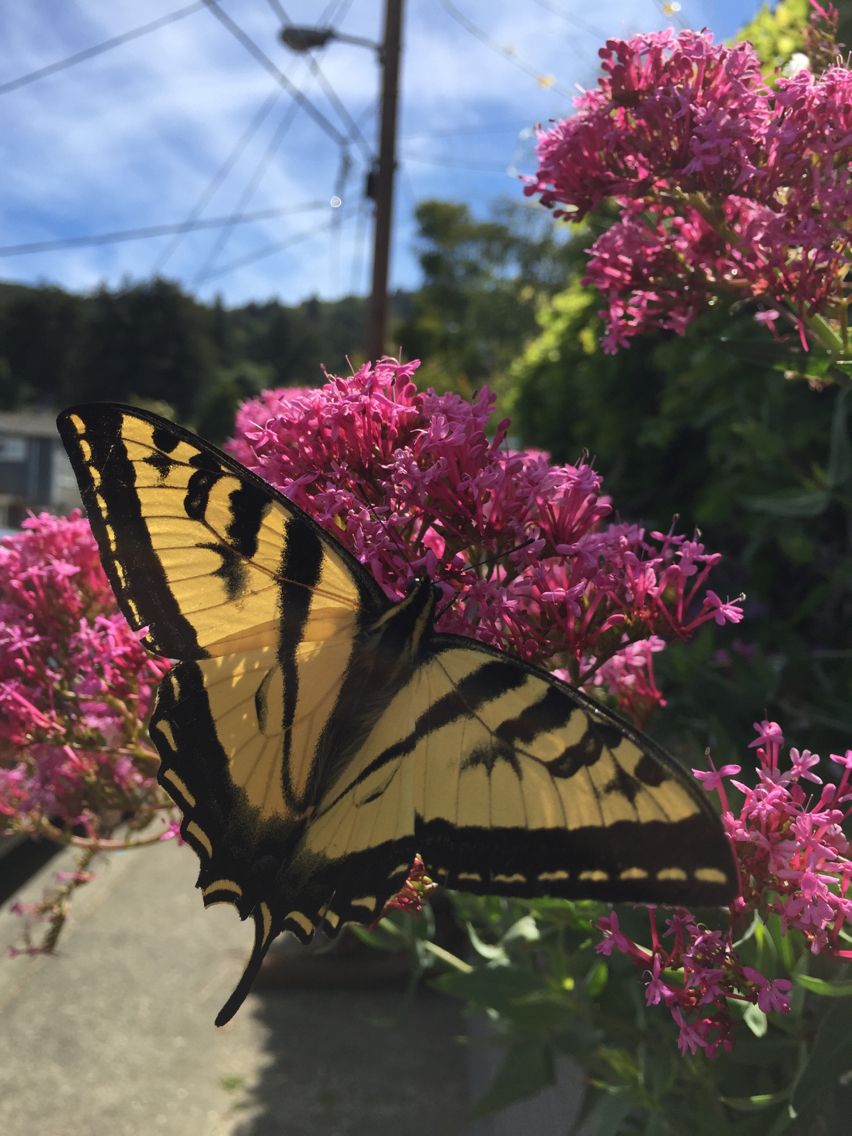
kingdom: Animalia
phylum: Arthropoda
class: Insecta
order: Lepidoptera
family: Papilionidae
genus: Papilio
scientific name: Papilio rutulus
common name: Western tiger swallowtail
